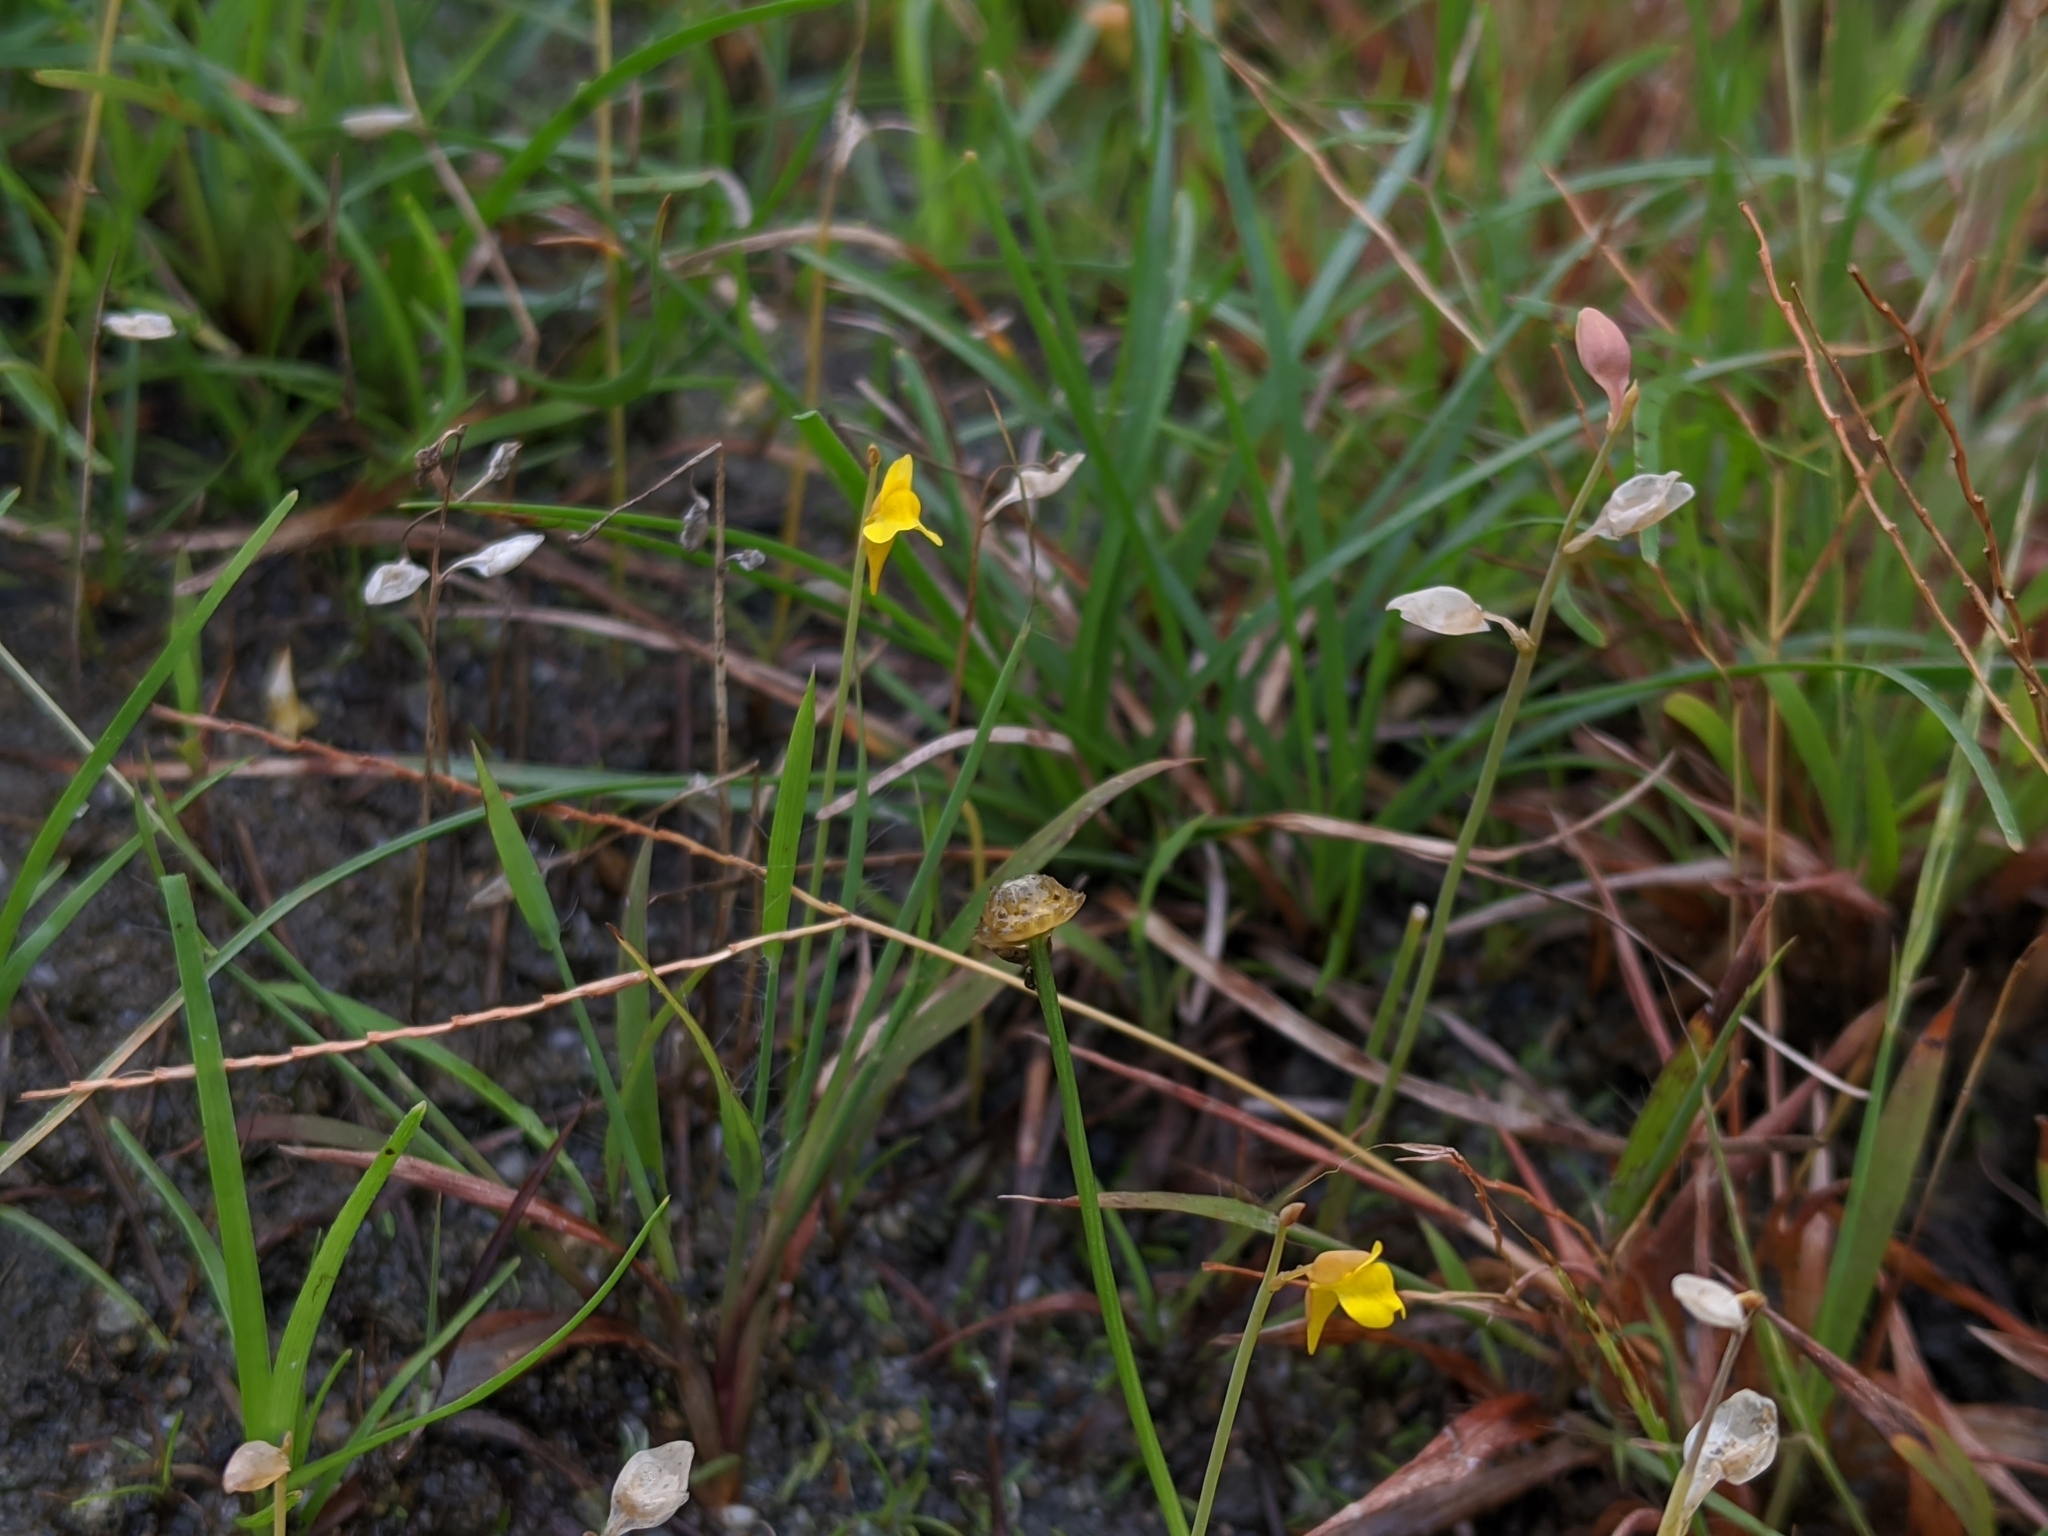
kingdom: Plantae
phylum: Tracheophyta
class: Magnoliopsida
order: Lamiales
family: Lentibulariaceae
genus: Utricularia
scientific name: Utricularia bifida
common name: Bifid bladderwort
